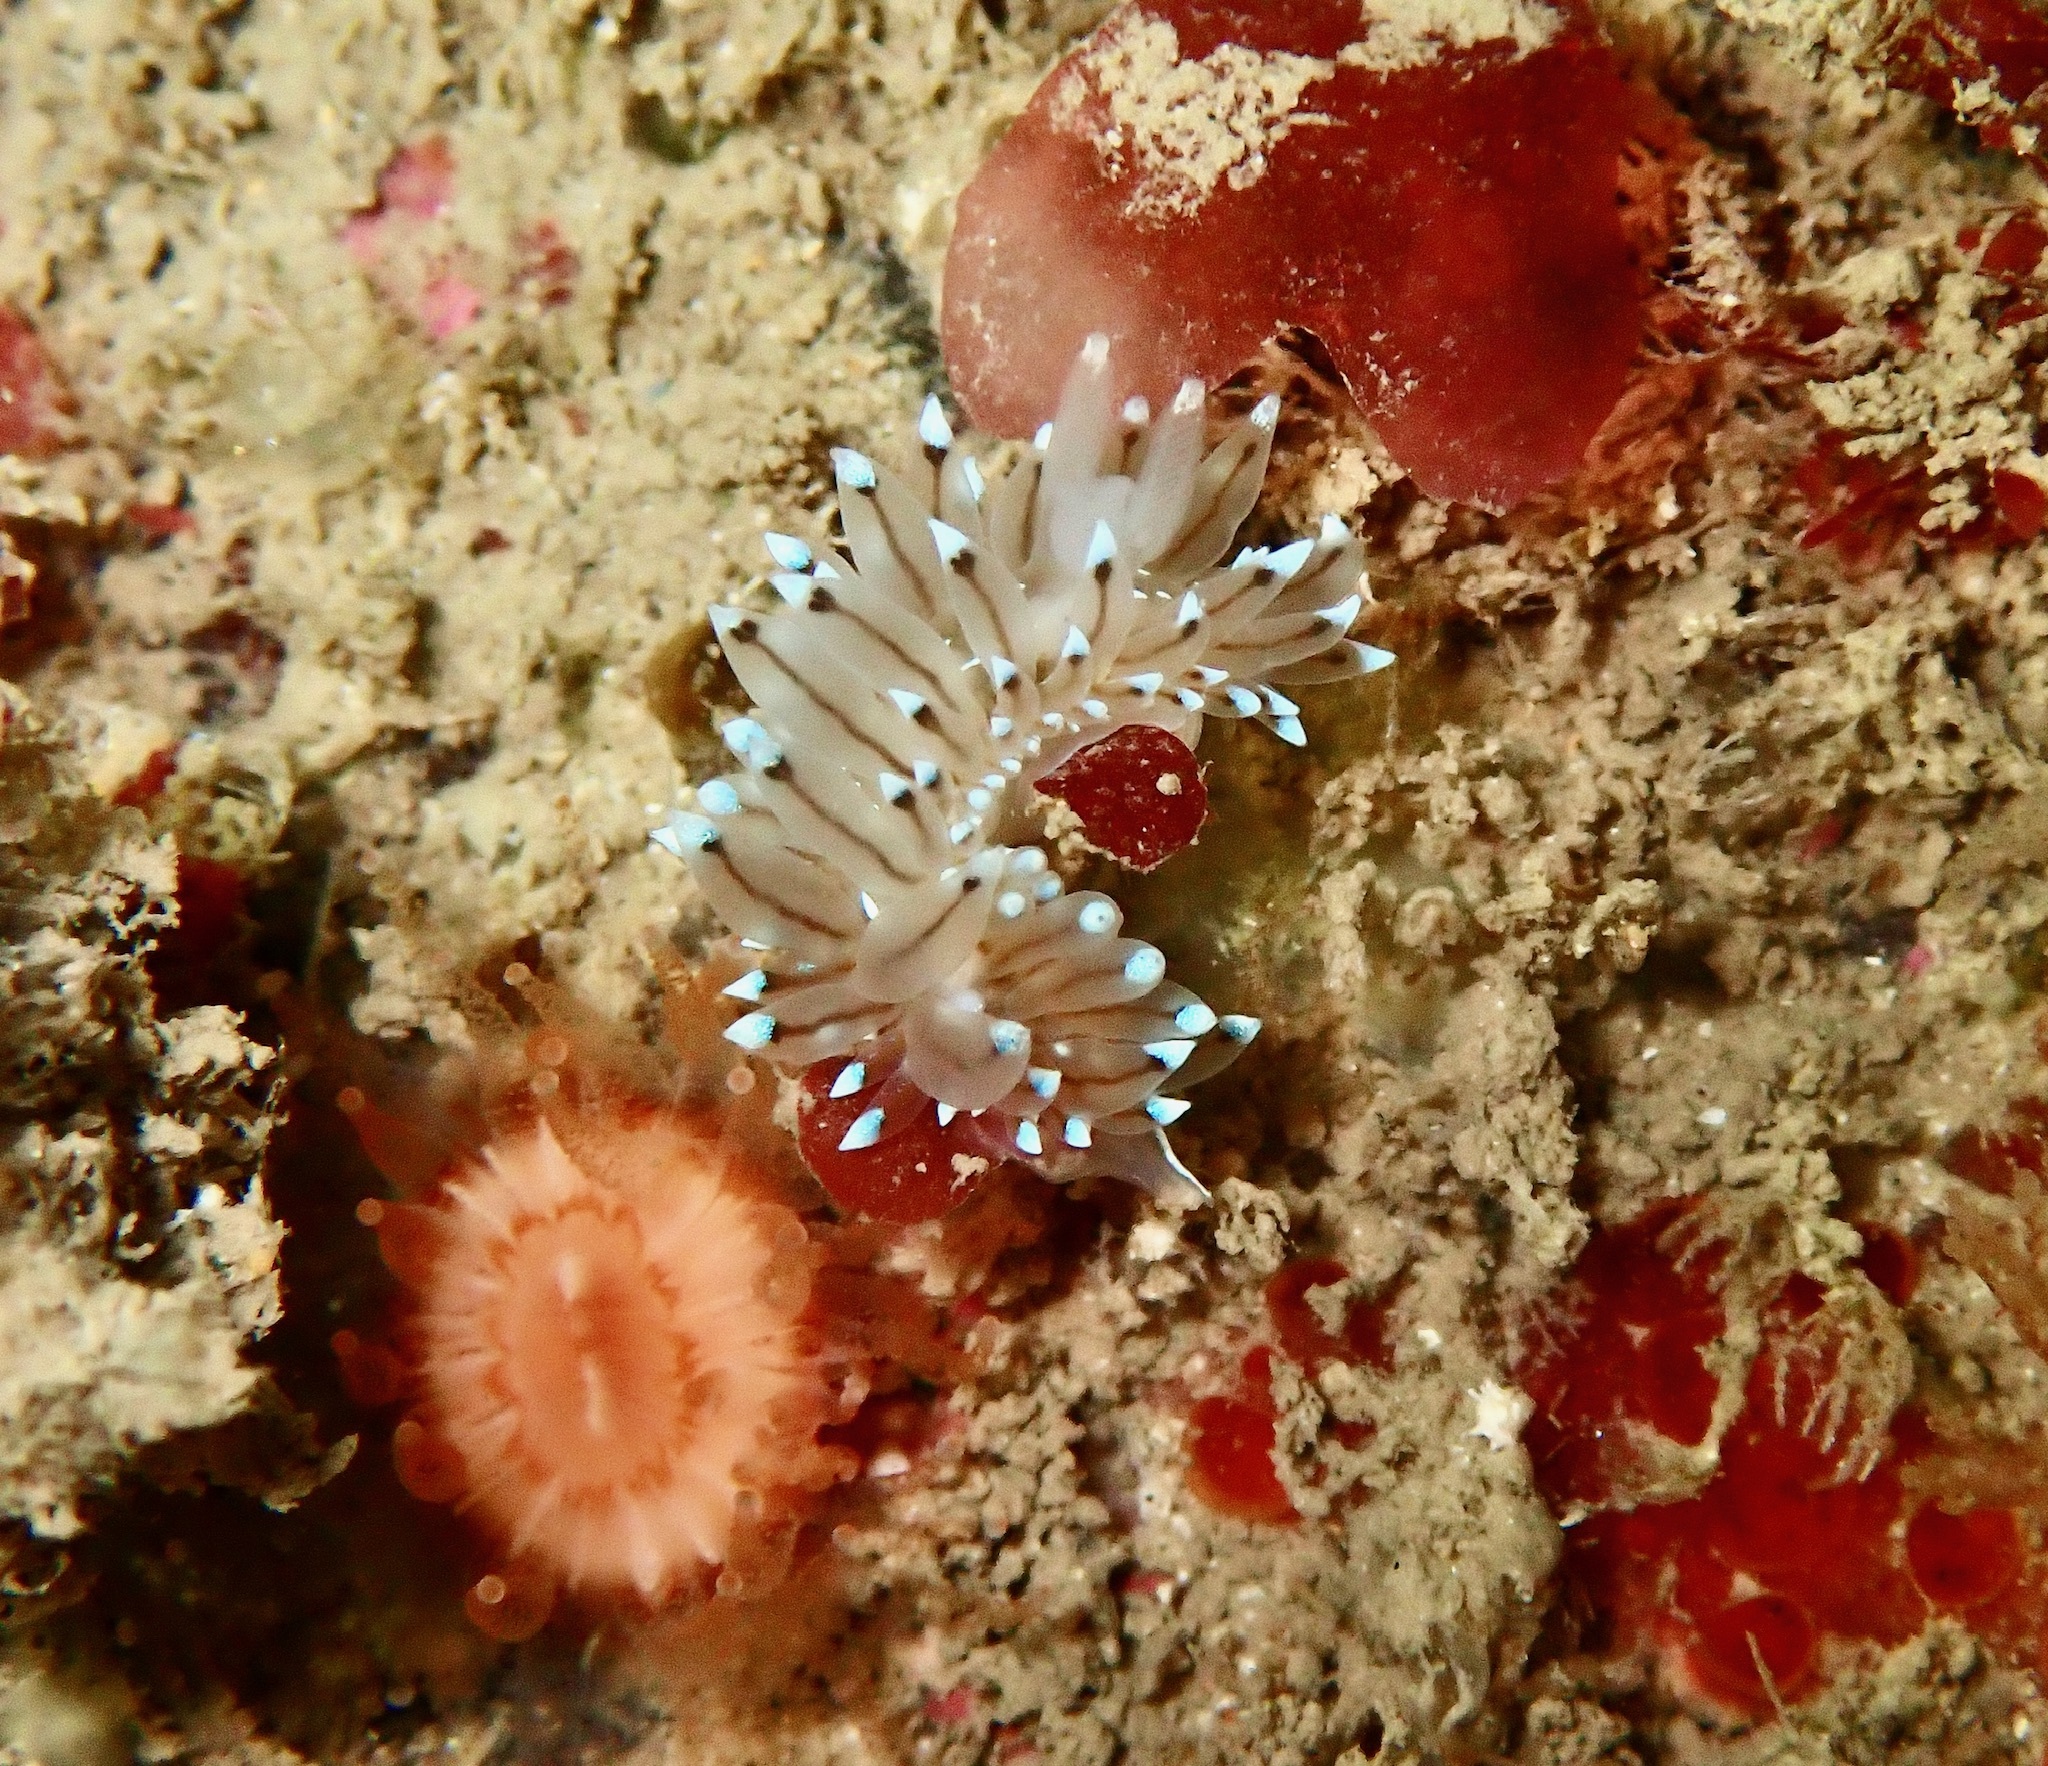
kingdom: Animalia
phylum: Mollusca
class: Gastropoda
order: Nudibranchia
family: Janolidae
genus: Antiopella
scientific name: Antiopella cristata
